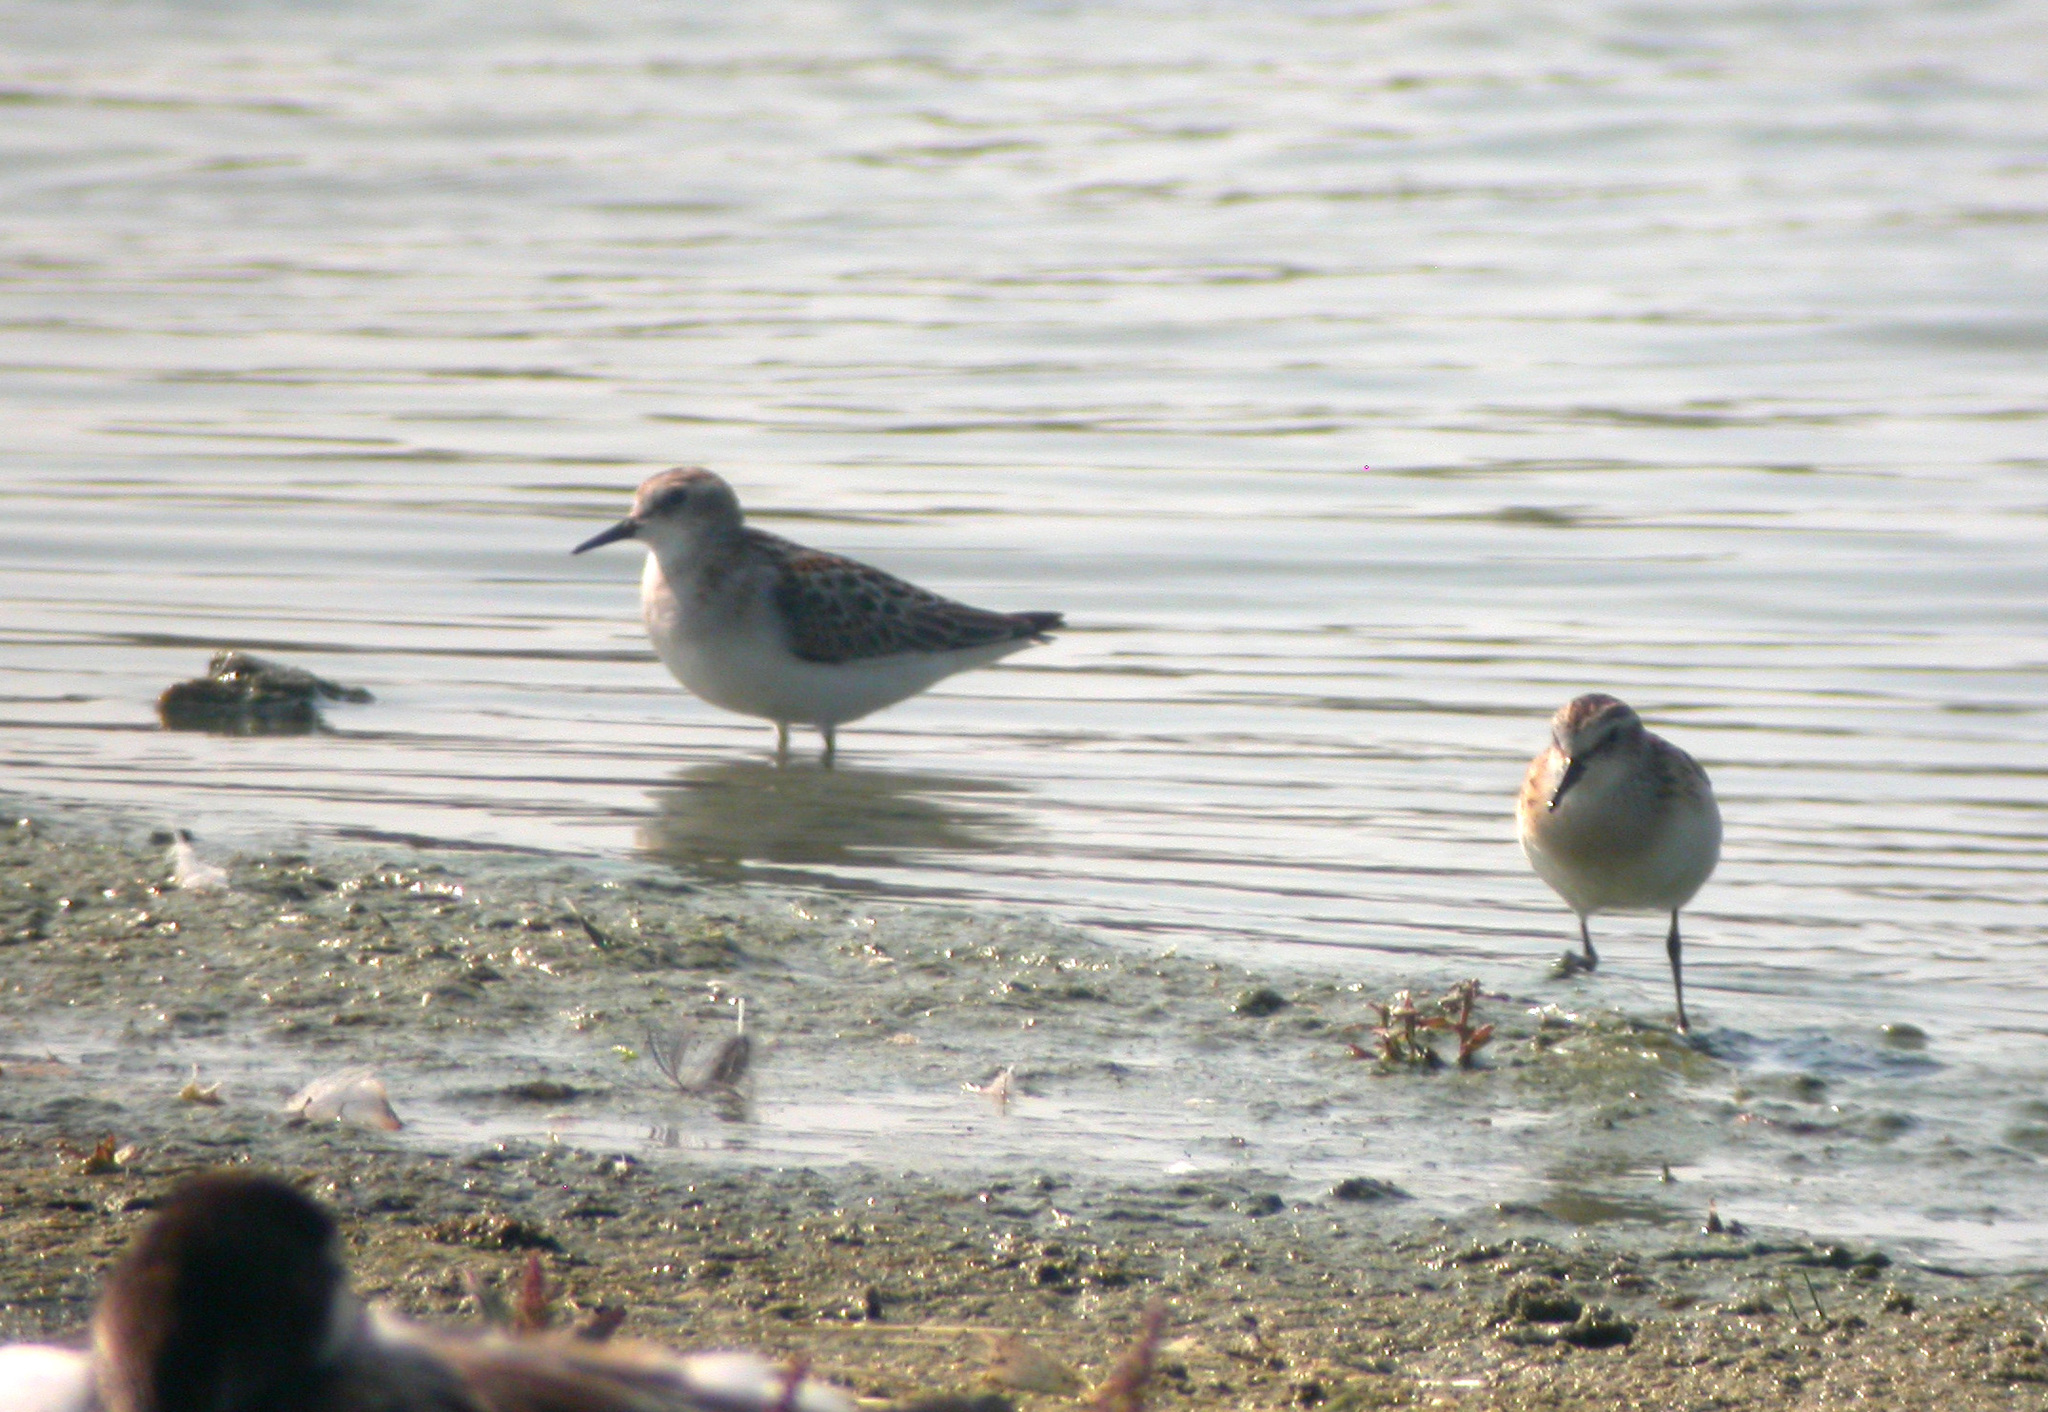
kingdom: Animalia
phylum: Chordata
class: Aves
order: Charadriiformes
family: Scolopacidae
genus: Calidris
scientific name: Calidris minuta
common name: Little stint
